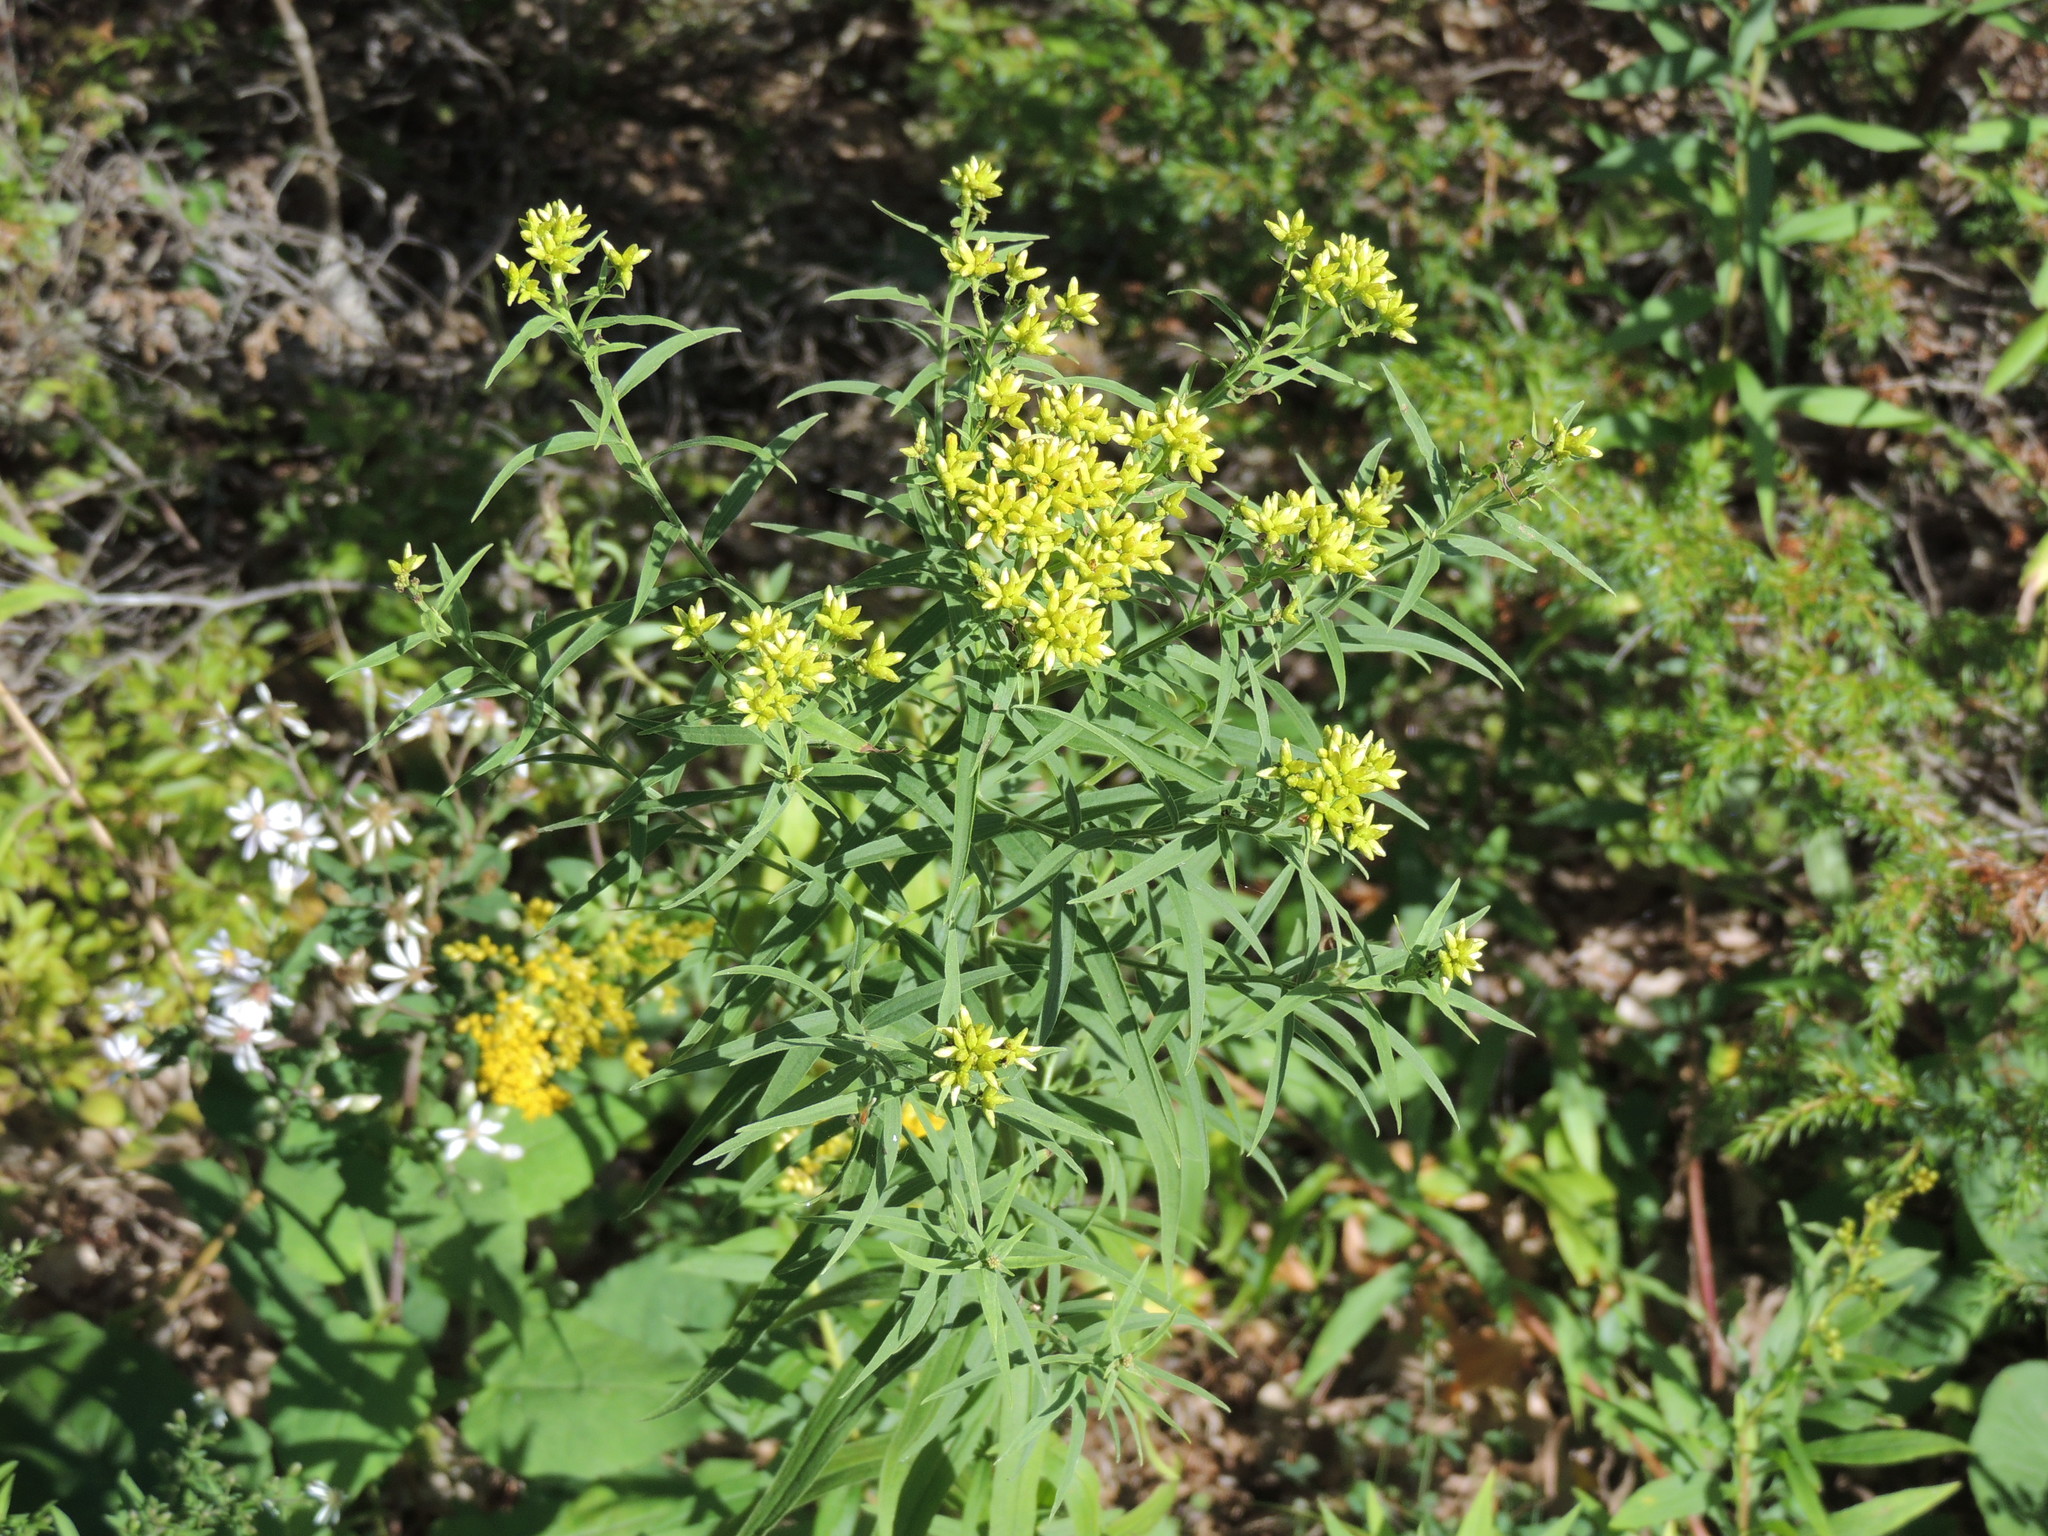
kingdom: Plantae
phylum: Tracheophyta
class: Magnoliopsida
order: Asterales
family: Asteraceae
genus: Euthamia
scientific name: Euthamia graminifolia
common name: Common goldentop
